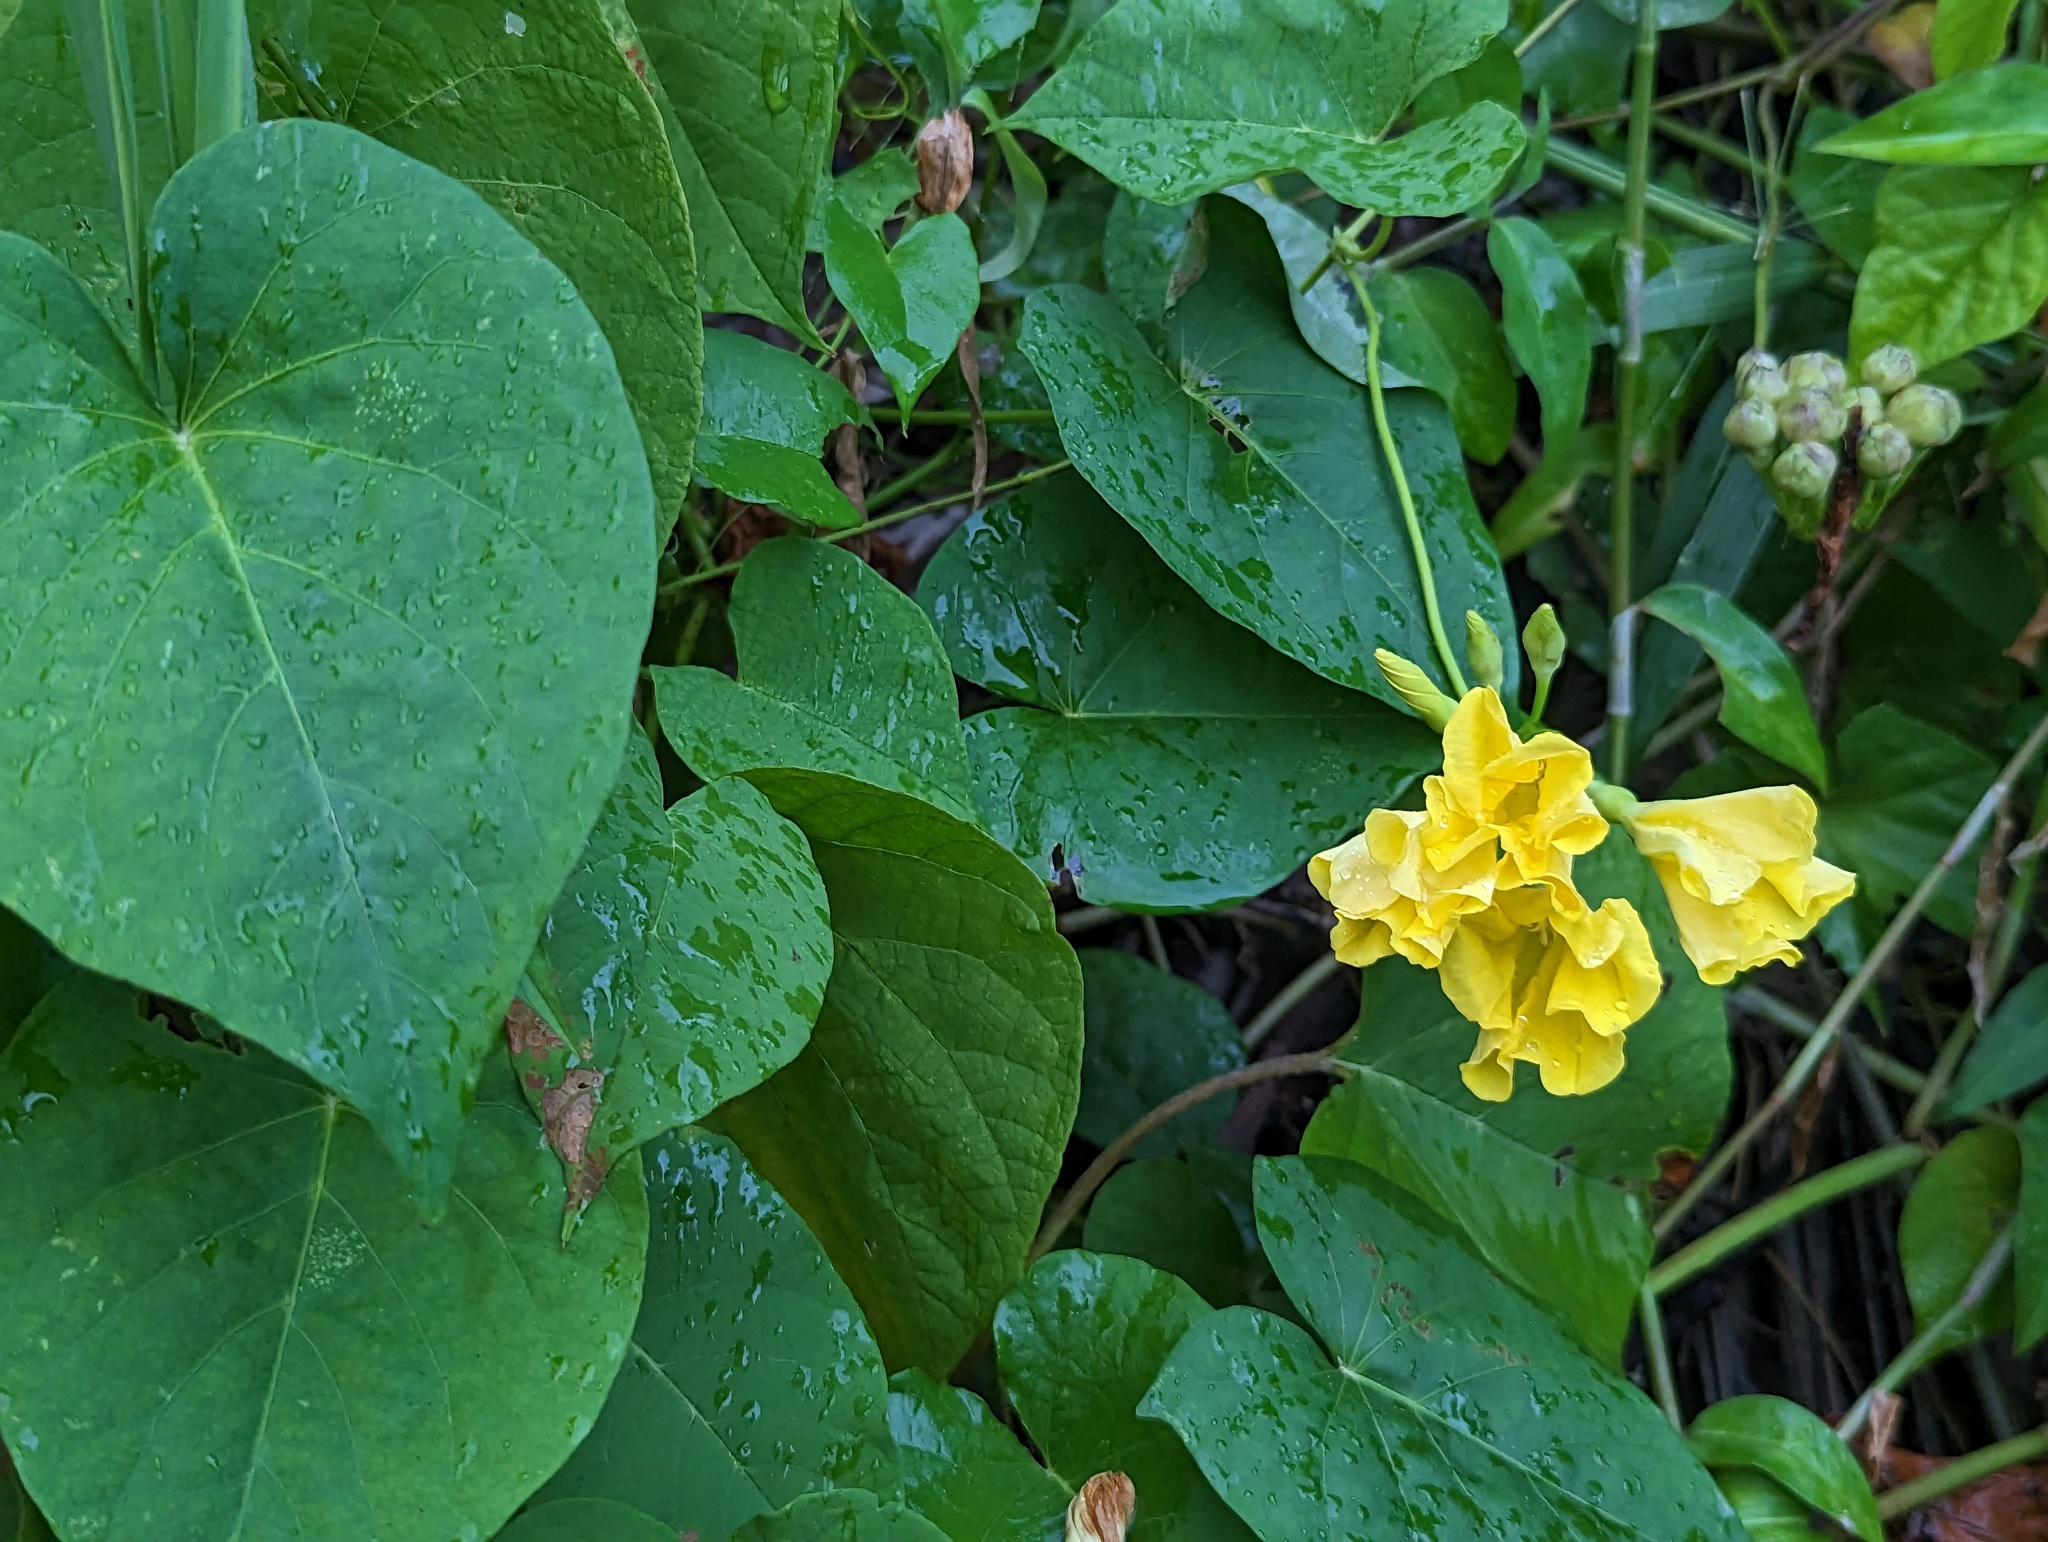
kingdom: Plantae
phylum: Tracheophyta
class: Magnoliopsida
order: Solanales
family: Convolvulaceae
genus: Camonea
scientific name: Camonea umbellata
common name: Hogvine
